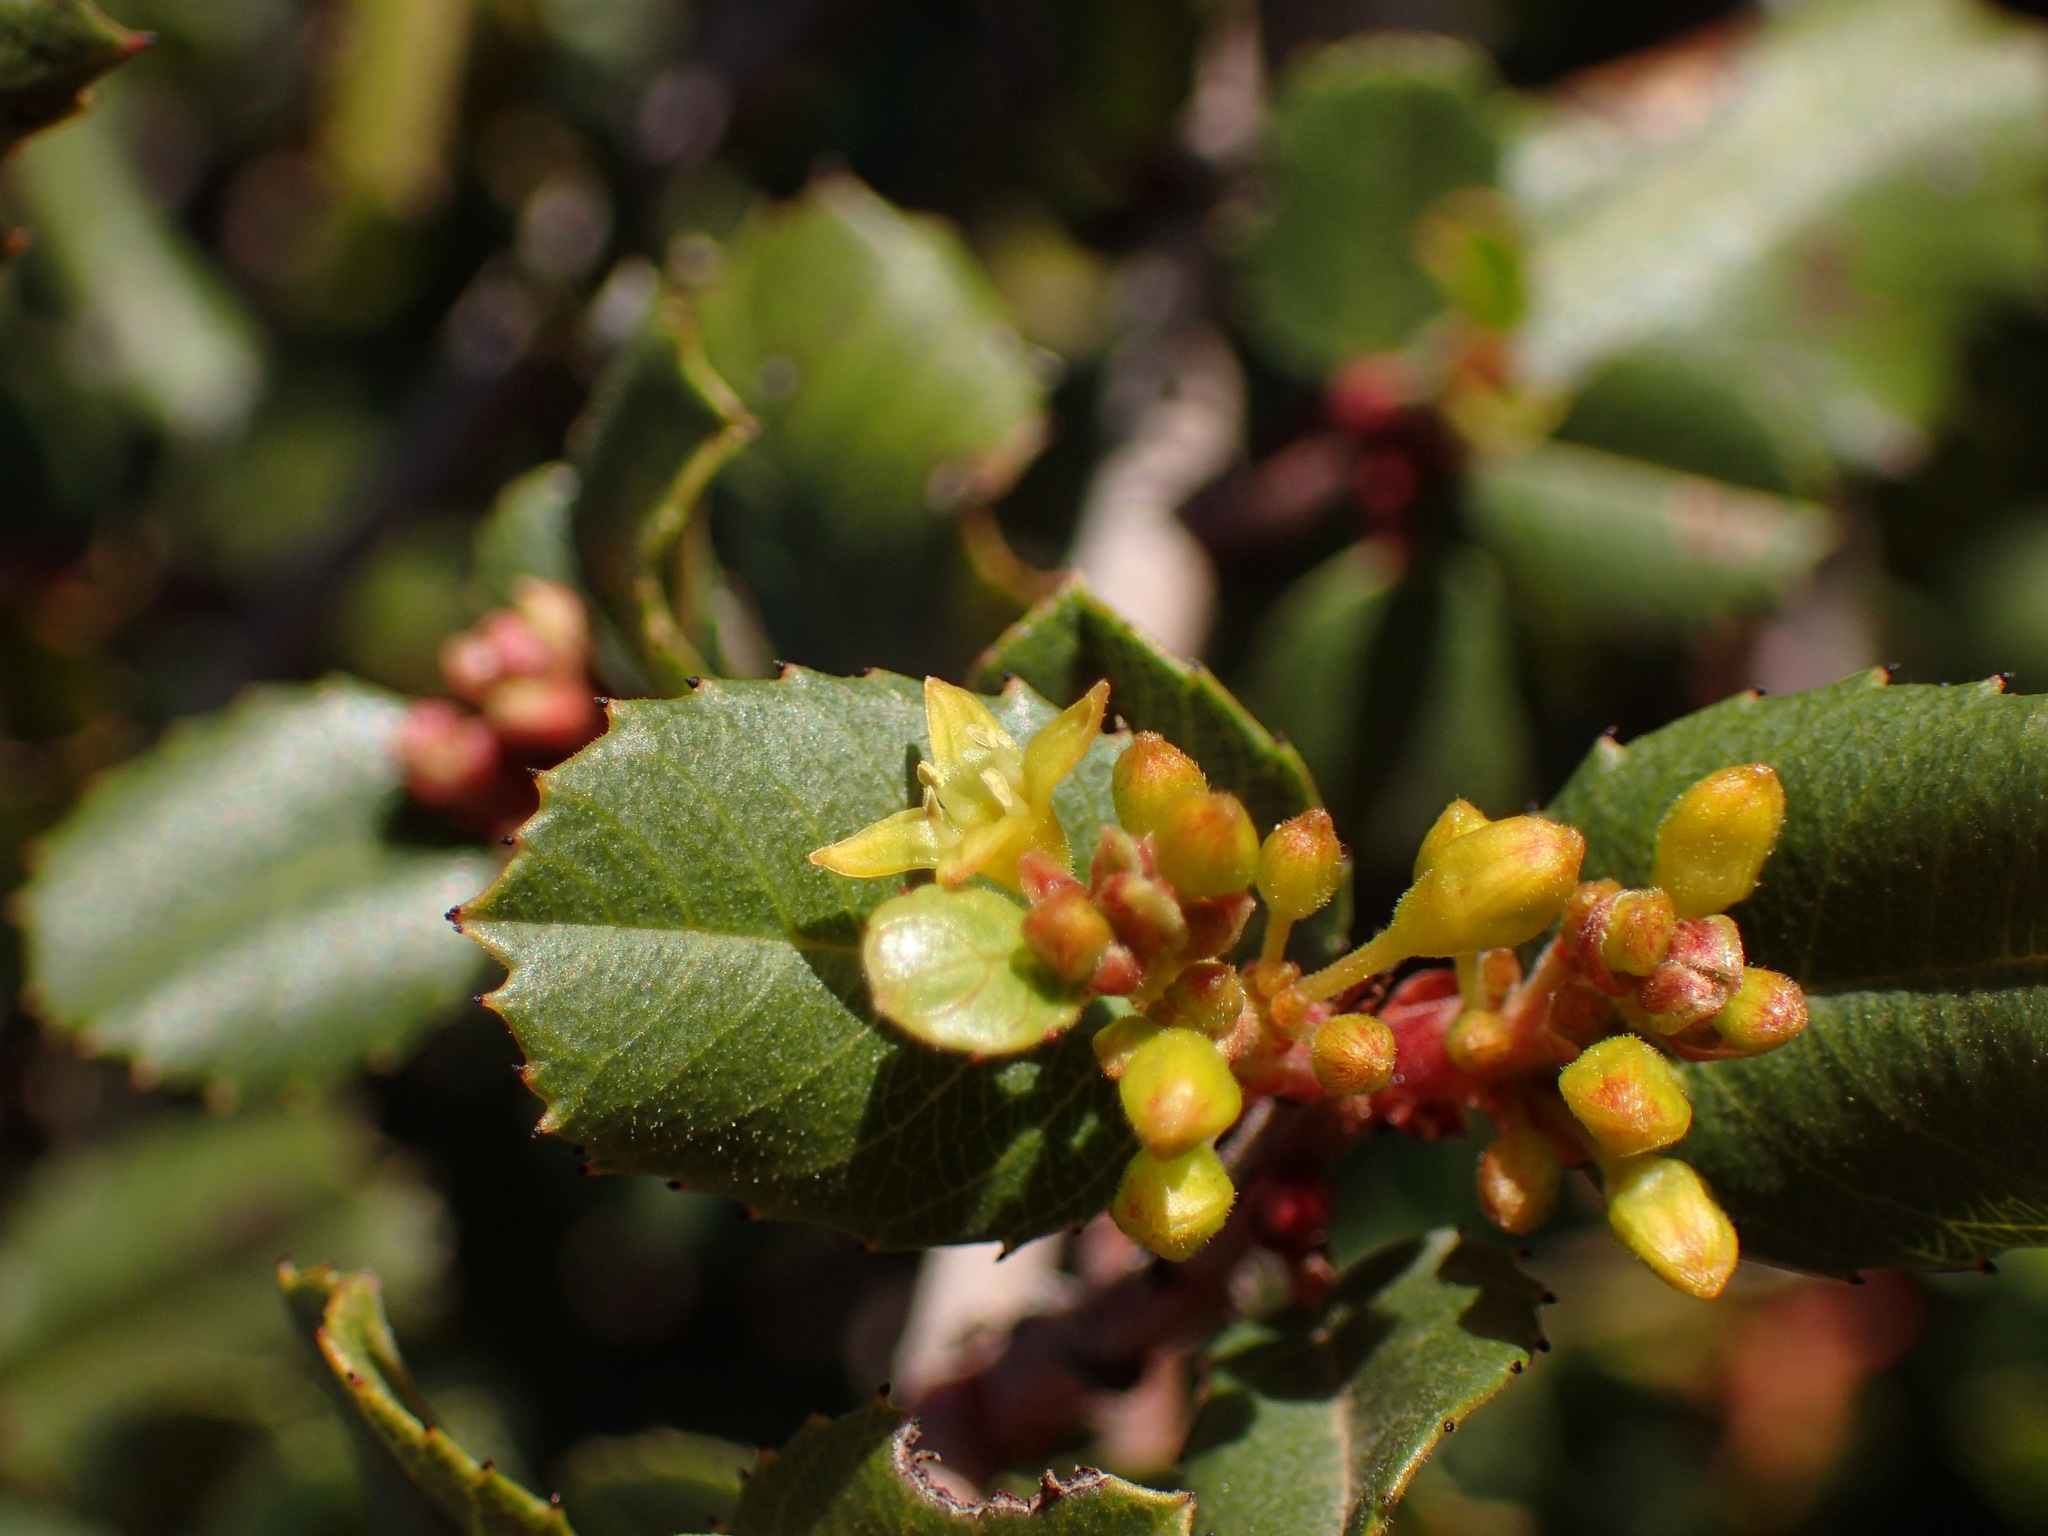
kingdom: Plantae
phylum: Tracheophyta
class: Magnoliopsida
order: Rosales
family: Rhamnaceae
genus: Endotropis
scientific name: Endotropis crocea
